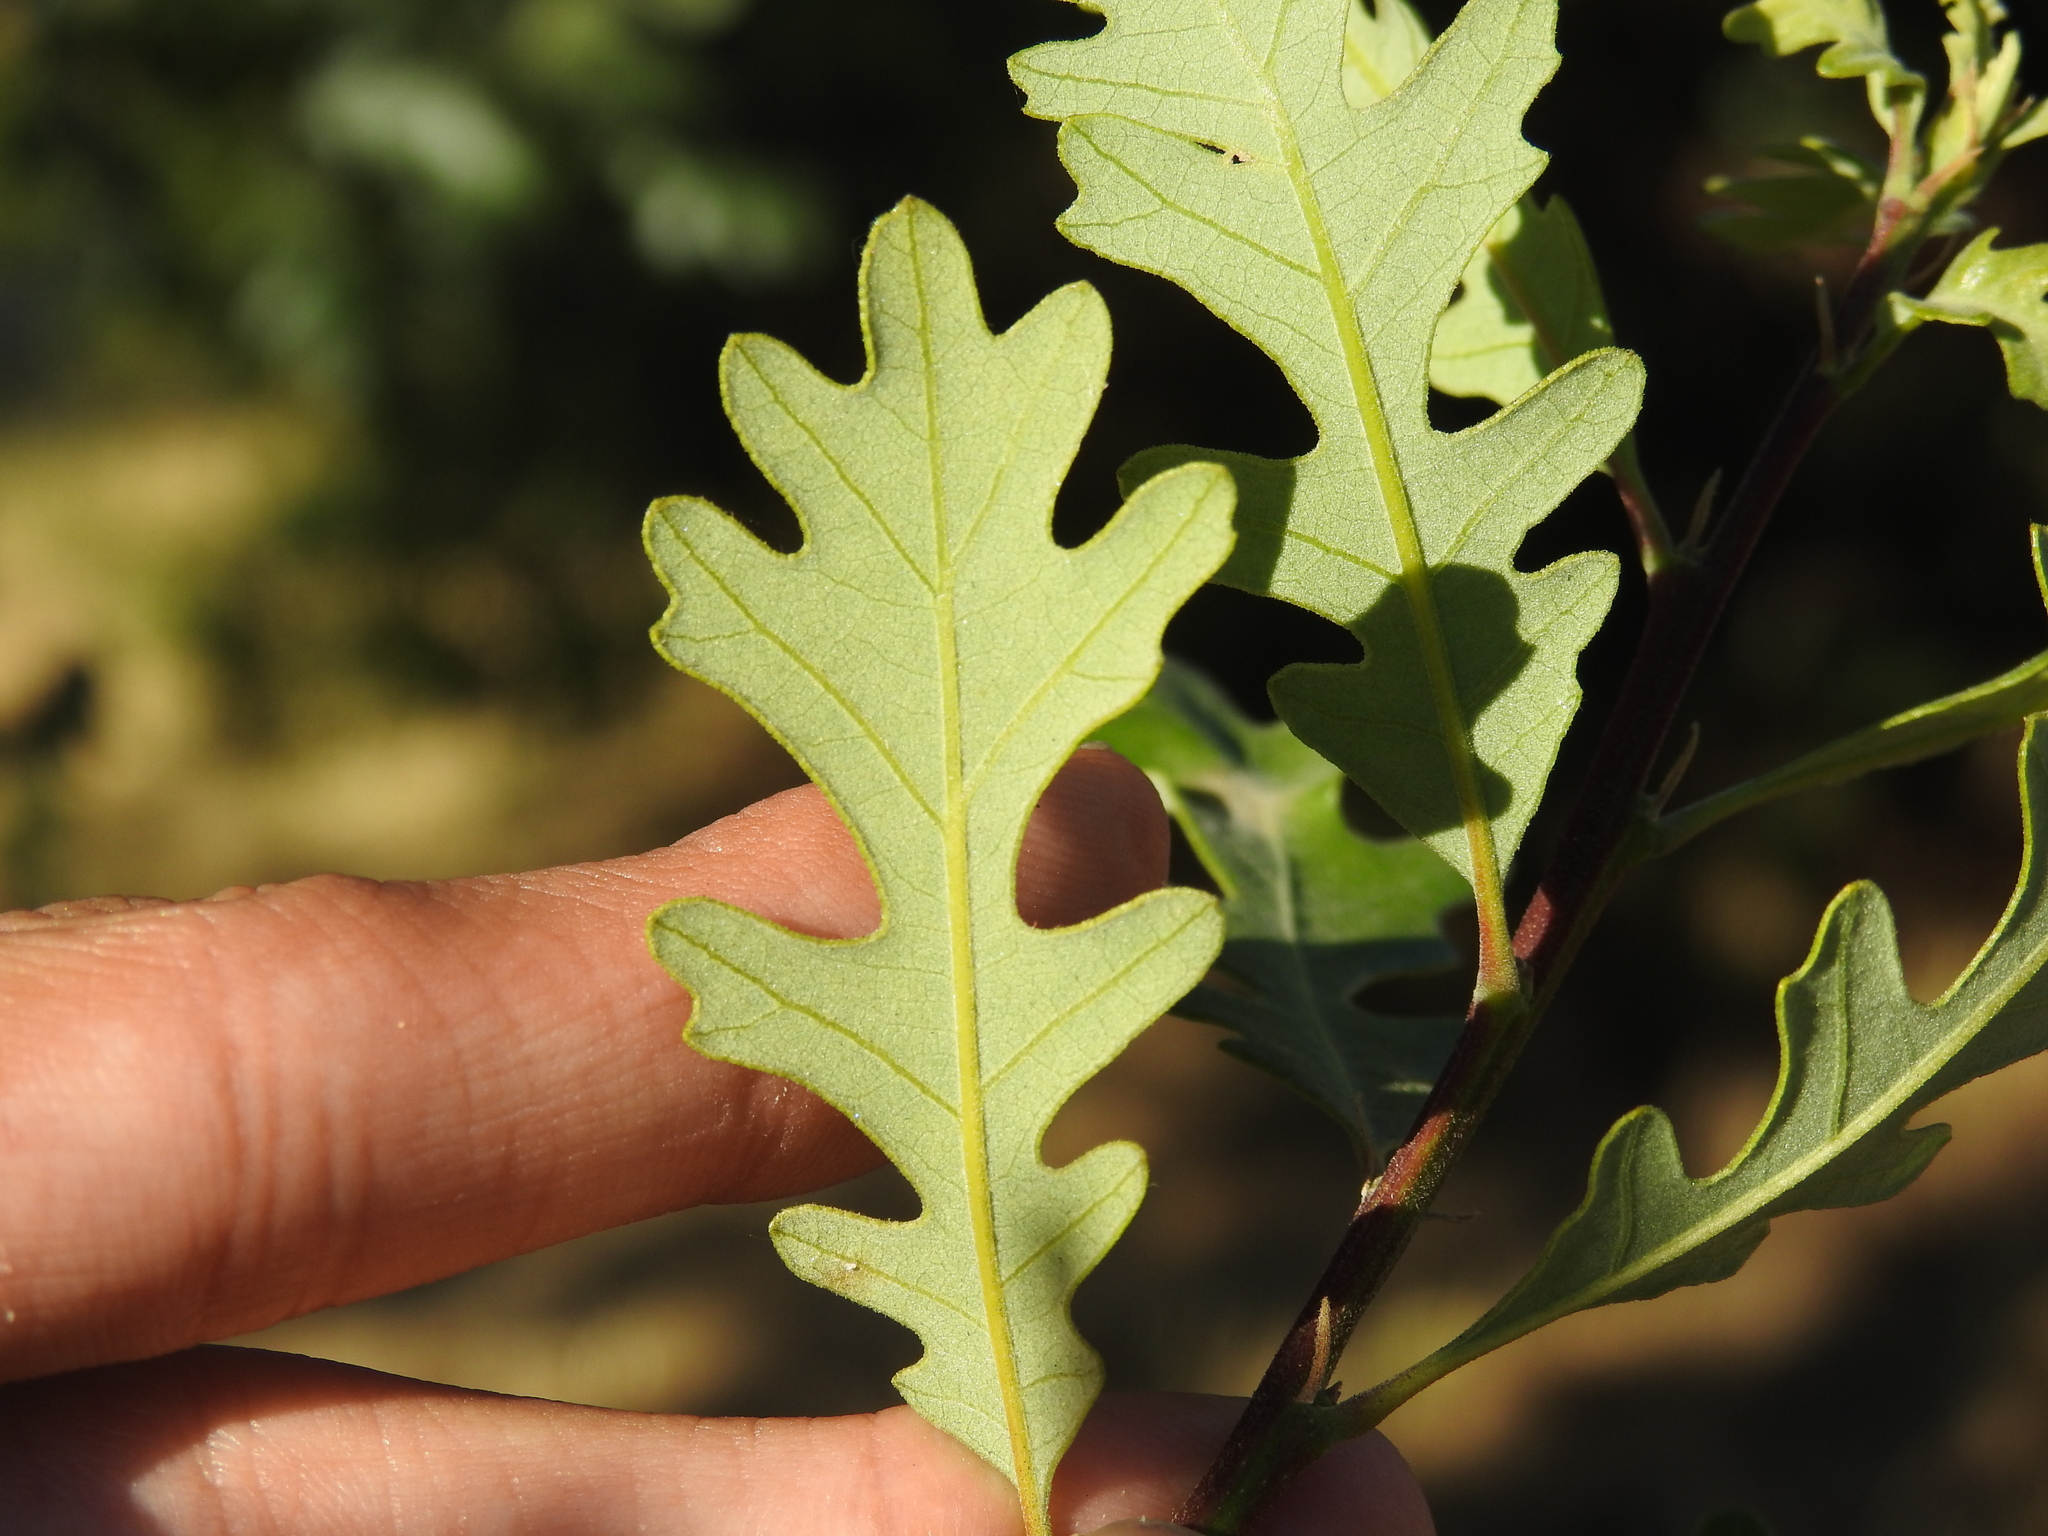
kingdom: Plantae
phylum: Tracheophyta
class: Magnoliopsida
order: Fagales
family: Fagaceae
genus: Quercus
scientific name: Quercus lobata
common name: Valley oak
